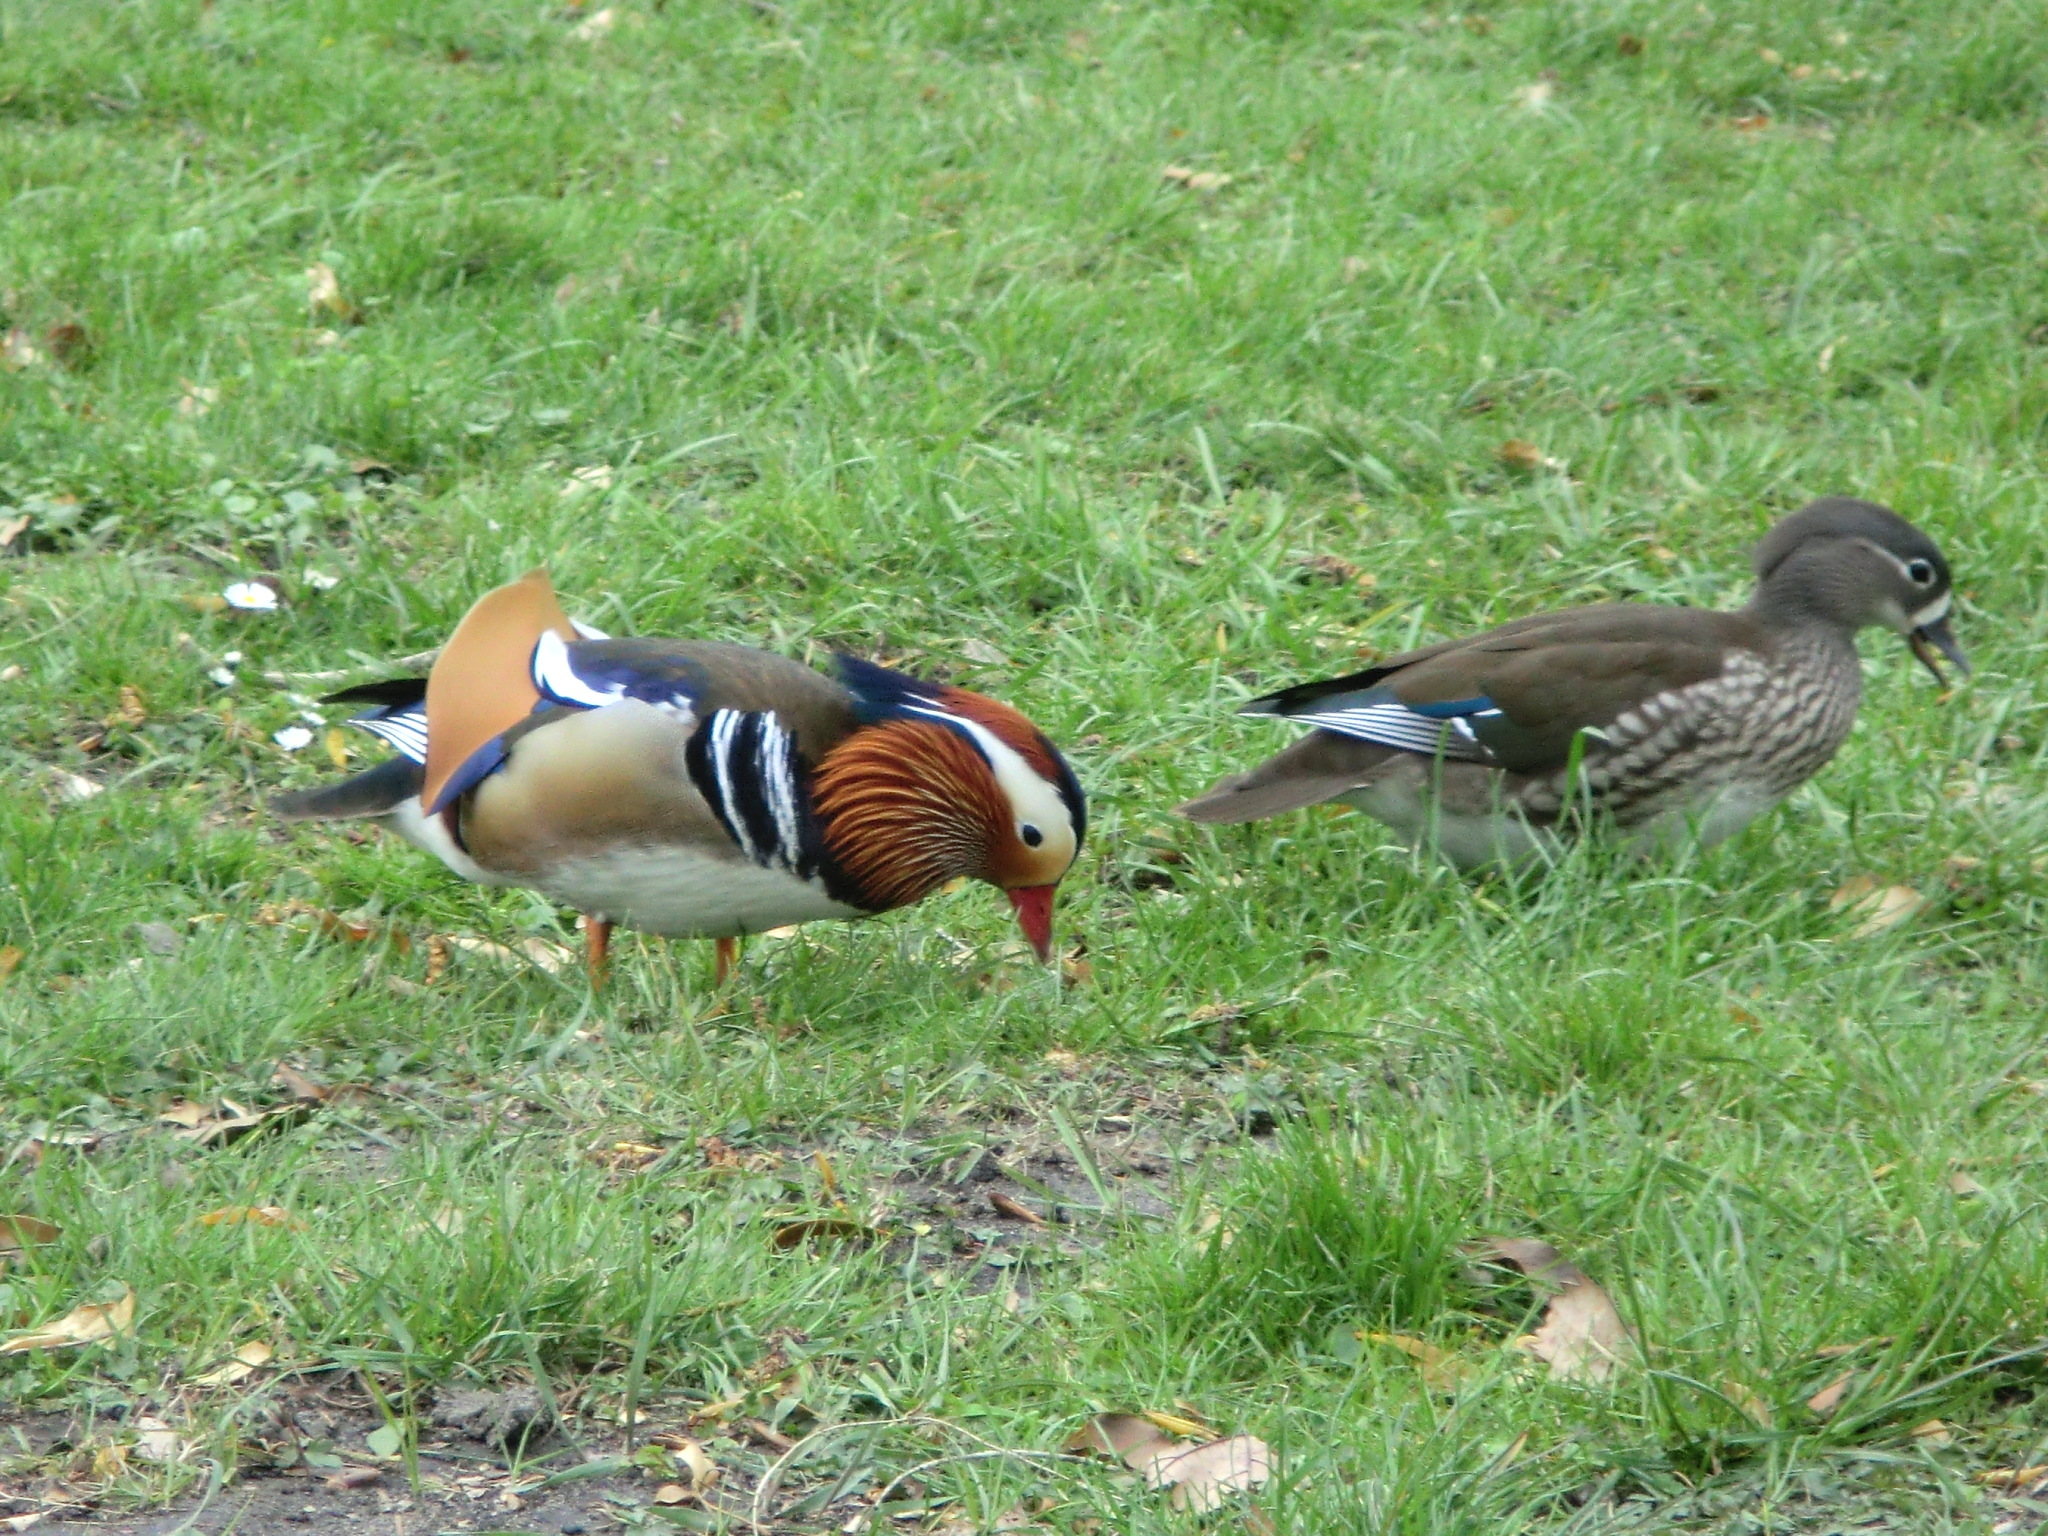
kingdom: Animalia
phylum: Chordata
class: Aves
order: Anseriformes
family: Anatidae
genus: Aix
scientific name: Aix galericulata
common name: Mandarin duck
